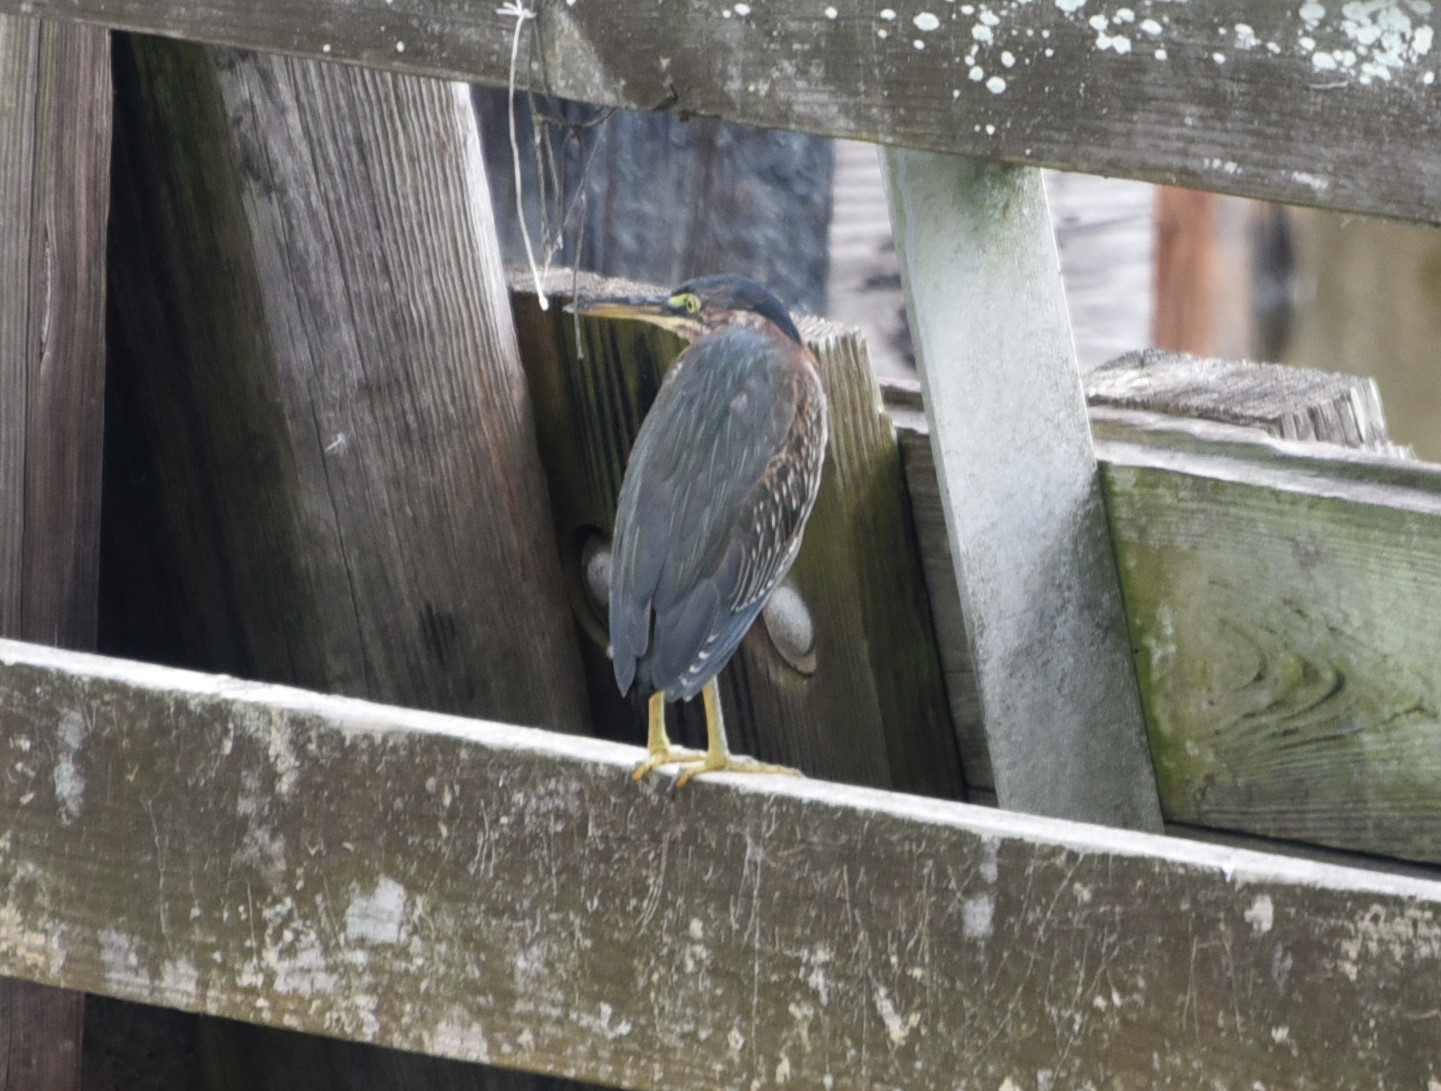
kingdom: Animalia
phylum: Chordata
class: Aves
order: Pelecaniformes
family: Ardeidae
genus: Butorides
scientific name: Butorides virescens
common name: Green heron
